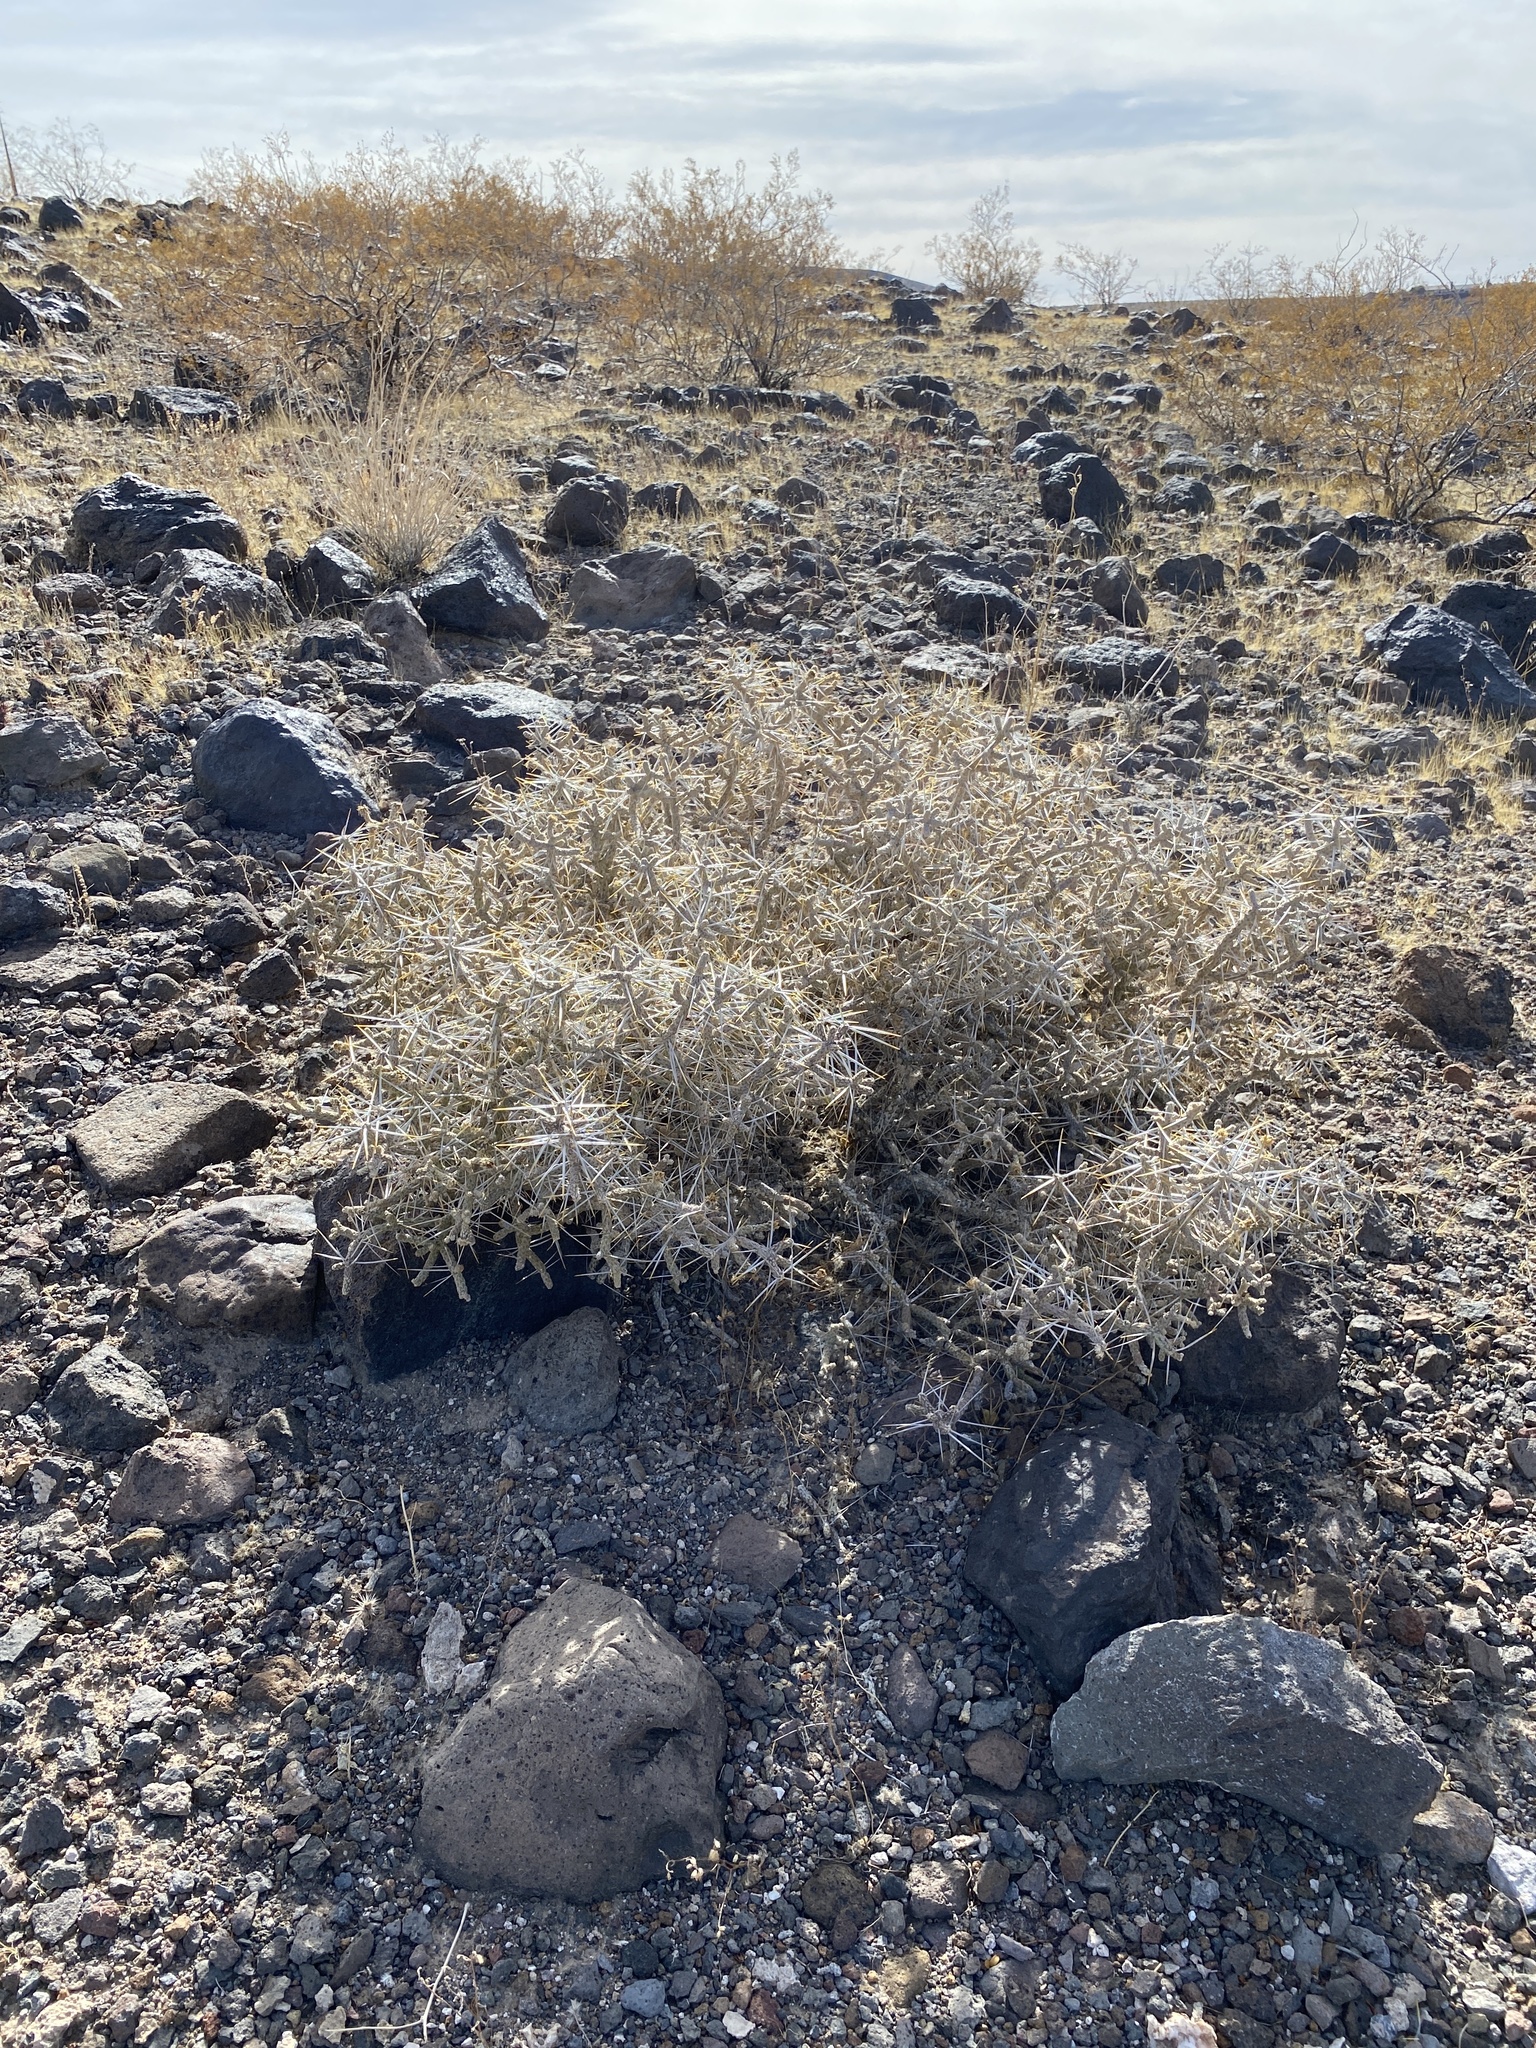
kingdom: Plantae
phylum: Tracheophyta
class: Magnoliopsida
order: Caryophyllales
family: Cactaceae
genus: Cylindropuntia
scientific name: Cylindropuntia ramosissima
